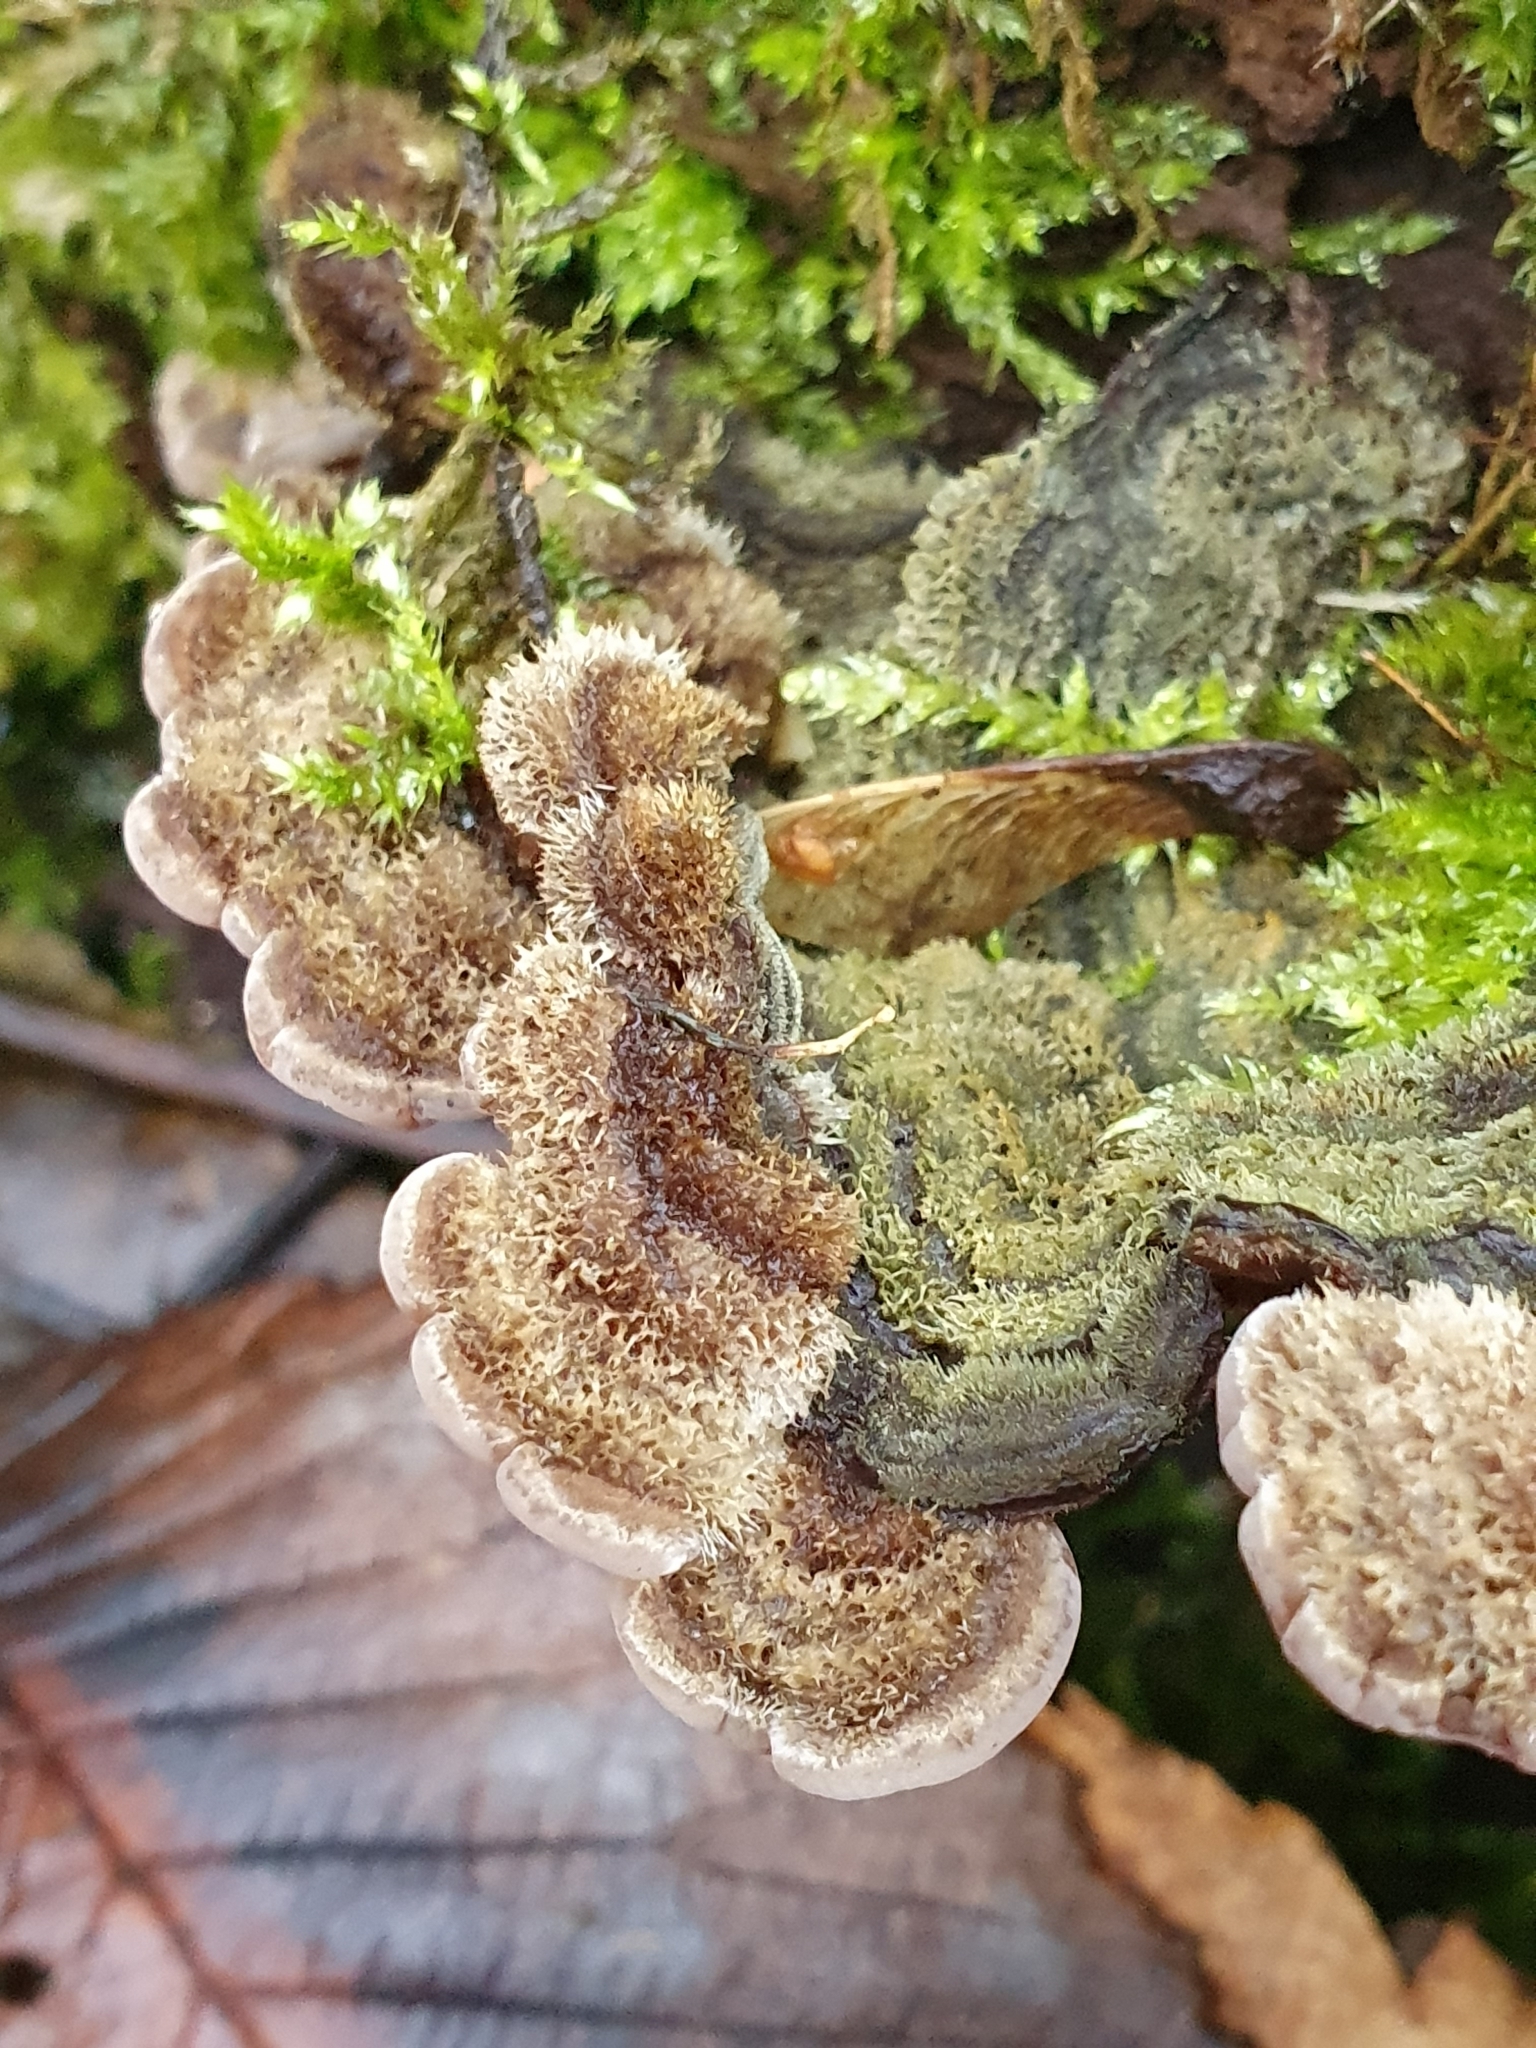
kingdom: Fungi
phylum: Basidiomycota
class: Agaricomycetes
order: Auriculariales
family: Auriculariaceae
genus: Auricularia
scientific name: Auricularia mesenterica
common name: Tripe fungus
